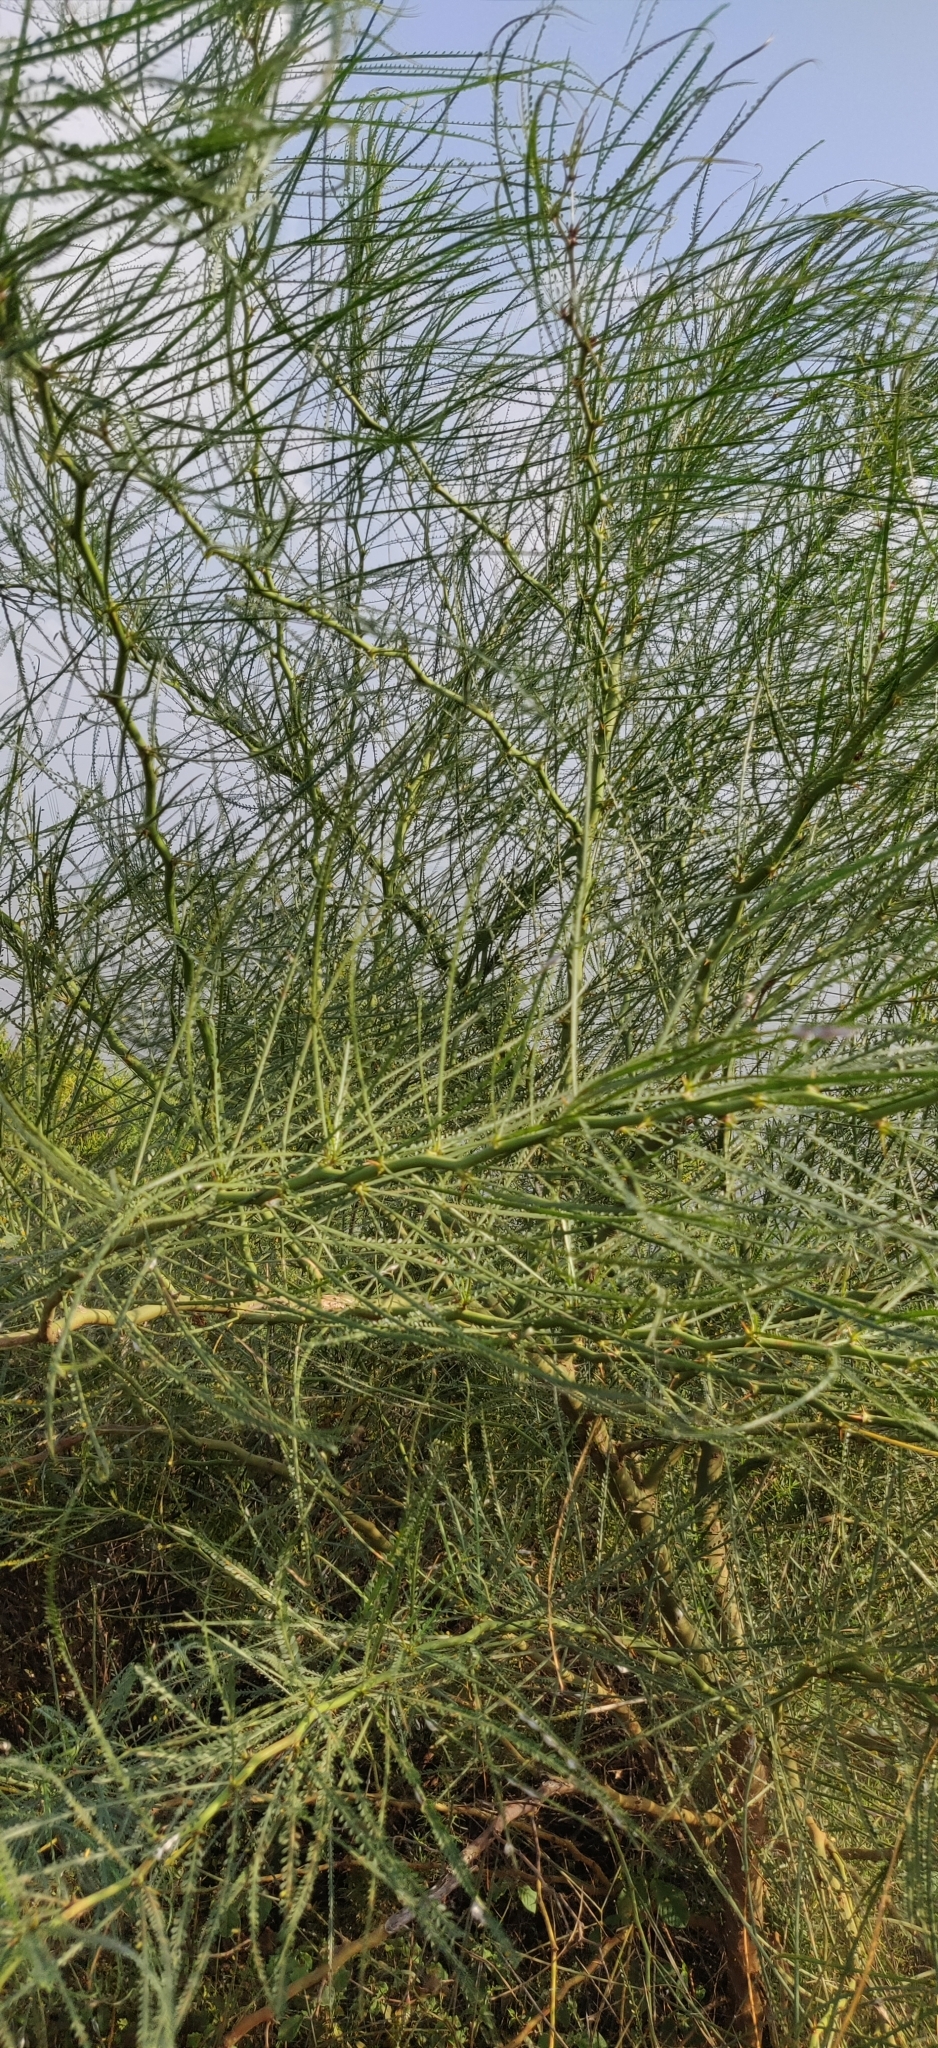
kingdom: Plantae
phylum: Tracheophyta
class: Magnoliopsida
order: Fabales
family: Fabaceae
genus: Parkinsonia
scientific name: Parkinsonia aculeata
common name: Jerusalem thorn
